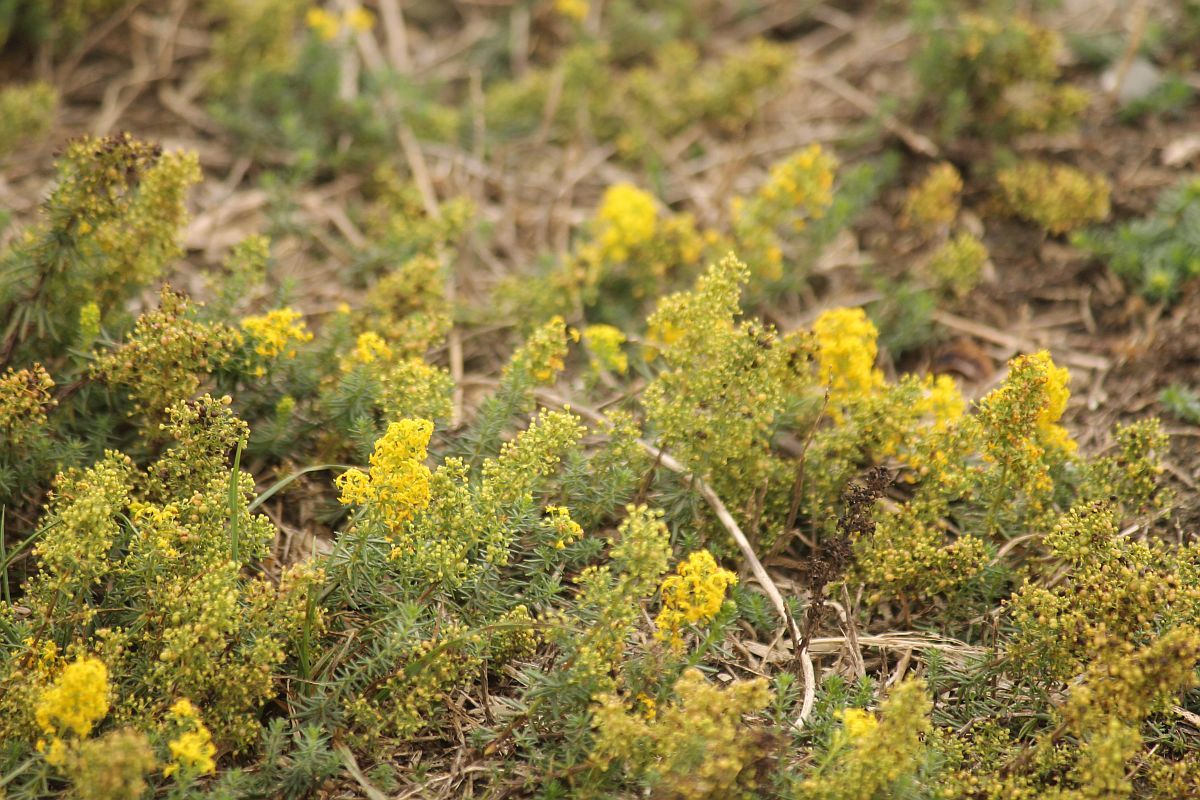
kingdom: Plantae
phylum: Tracheophyta
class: Magnoliopsida
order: Gentianales
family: Rubiaceae
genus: Galium
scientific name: Galium verum
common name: Lady's bedstraw
